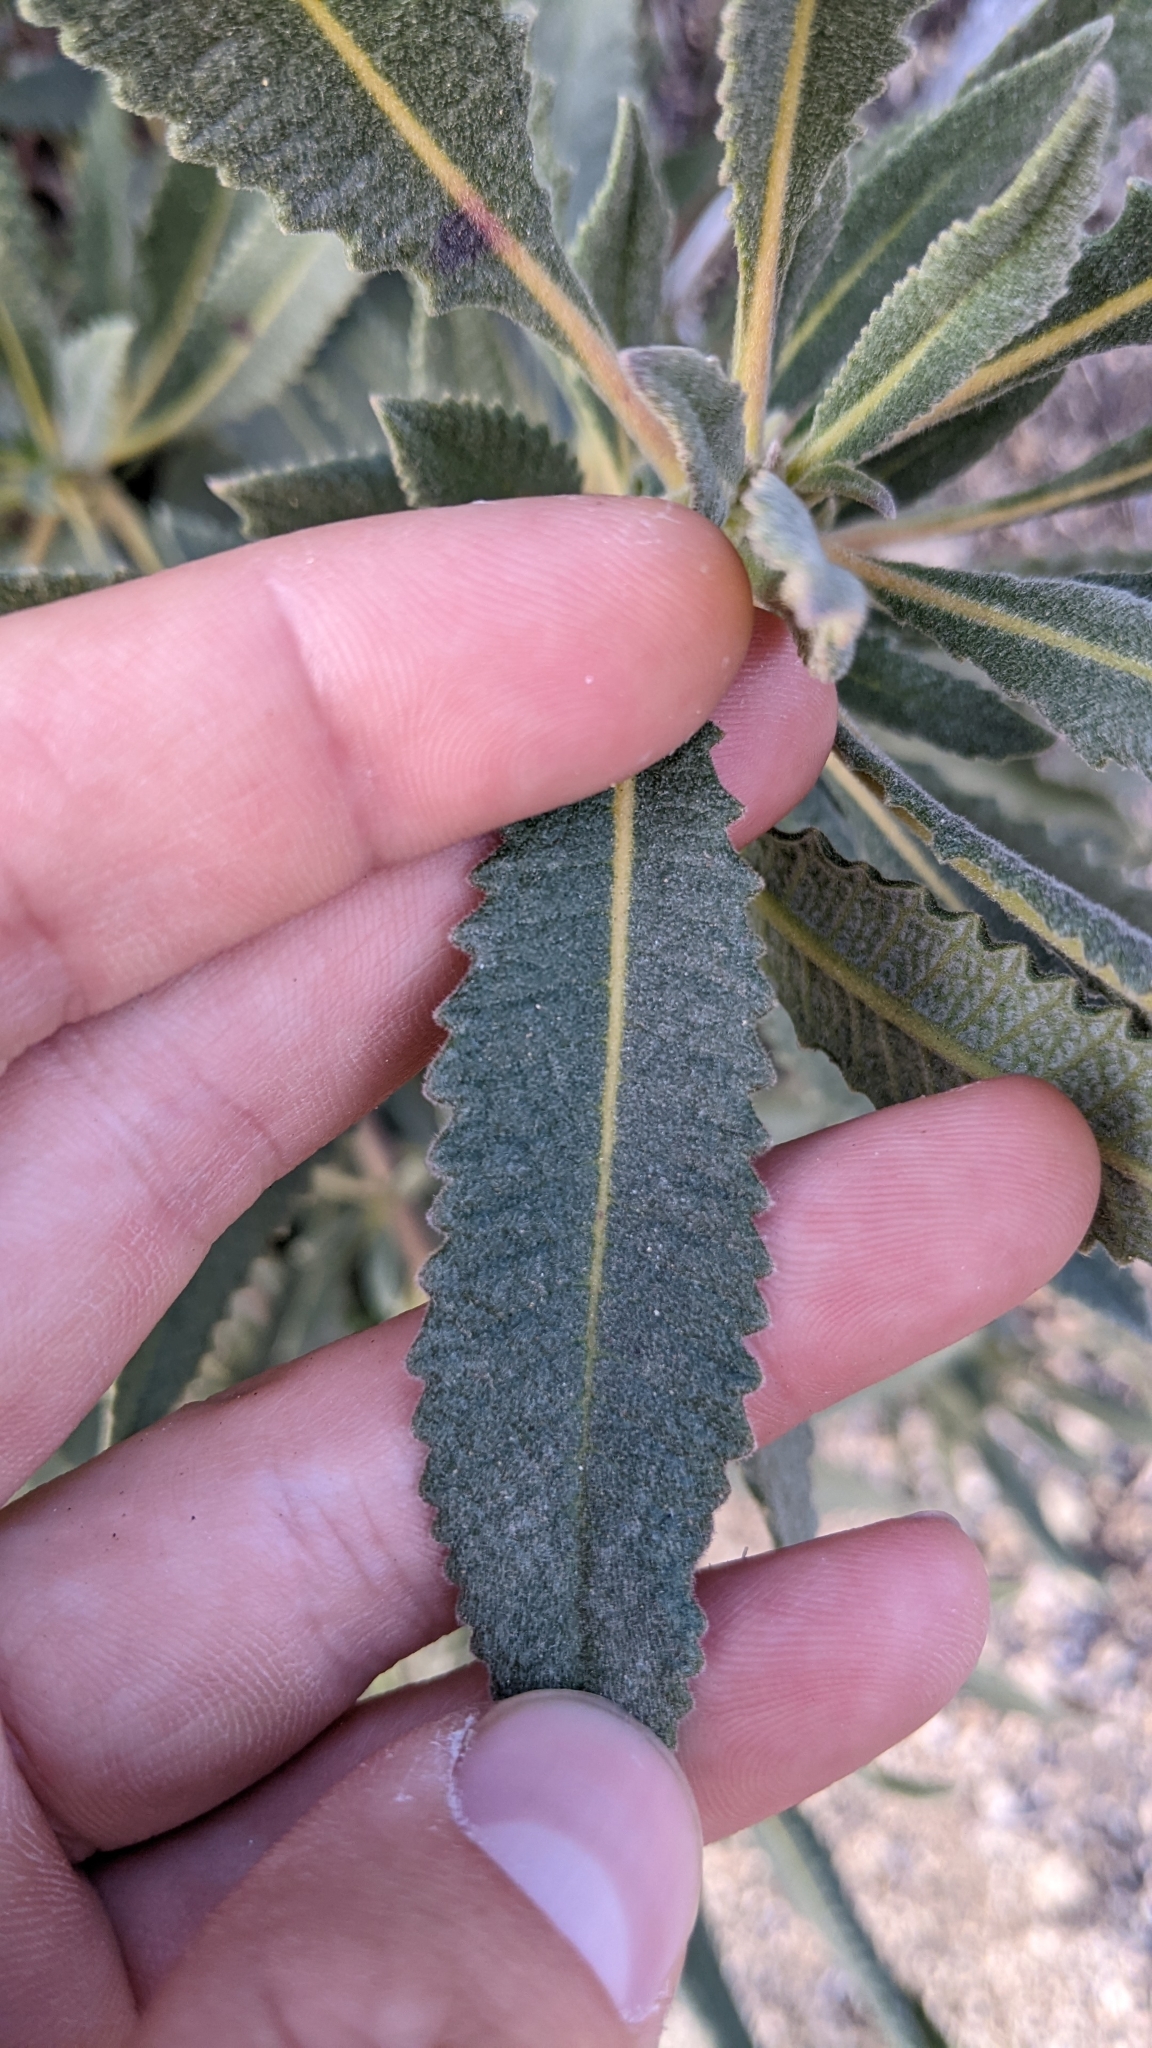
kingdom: Plantae
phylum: Tracheophyta
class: Magnoliopsida
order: Boraginales
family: Namaceae
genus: Eriodictyon
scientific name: Eriodictyon crassifolium
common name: Thick-leaf yerba-santa
